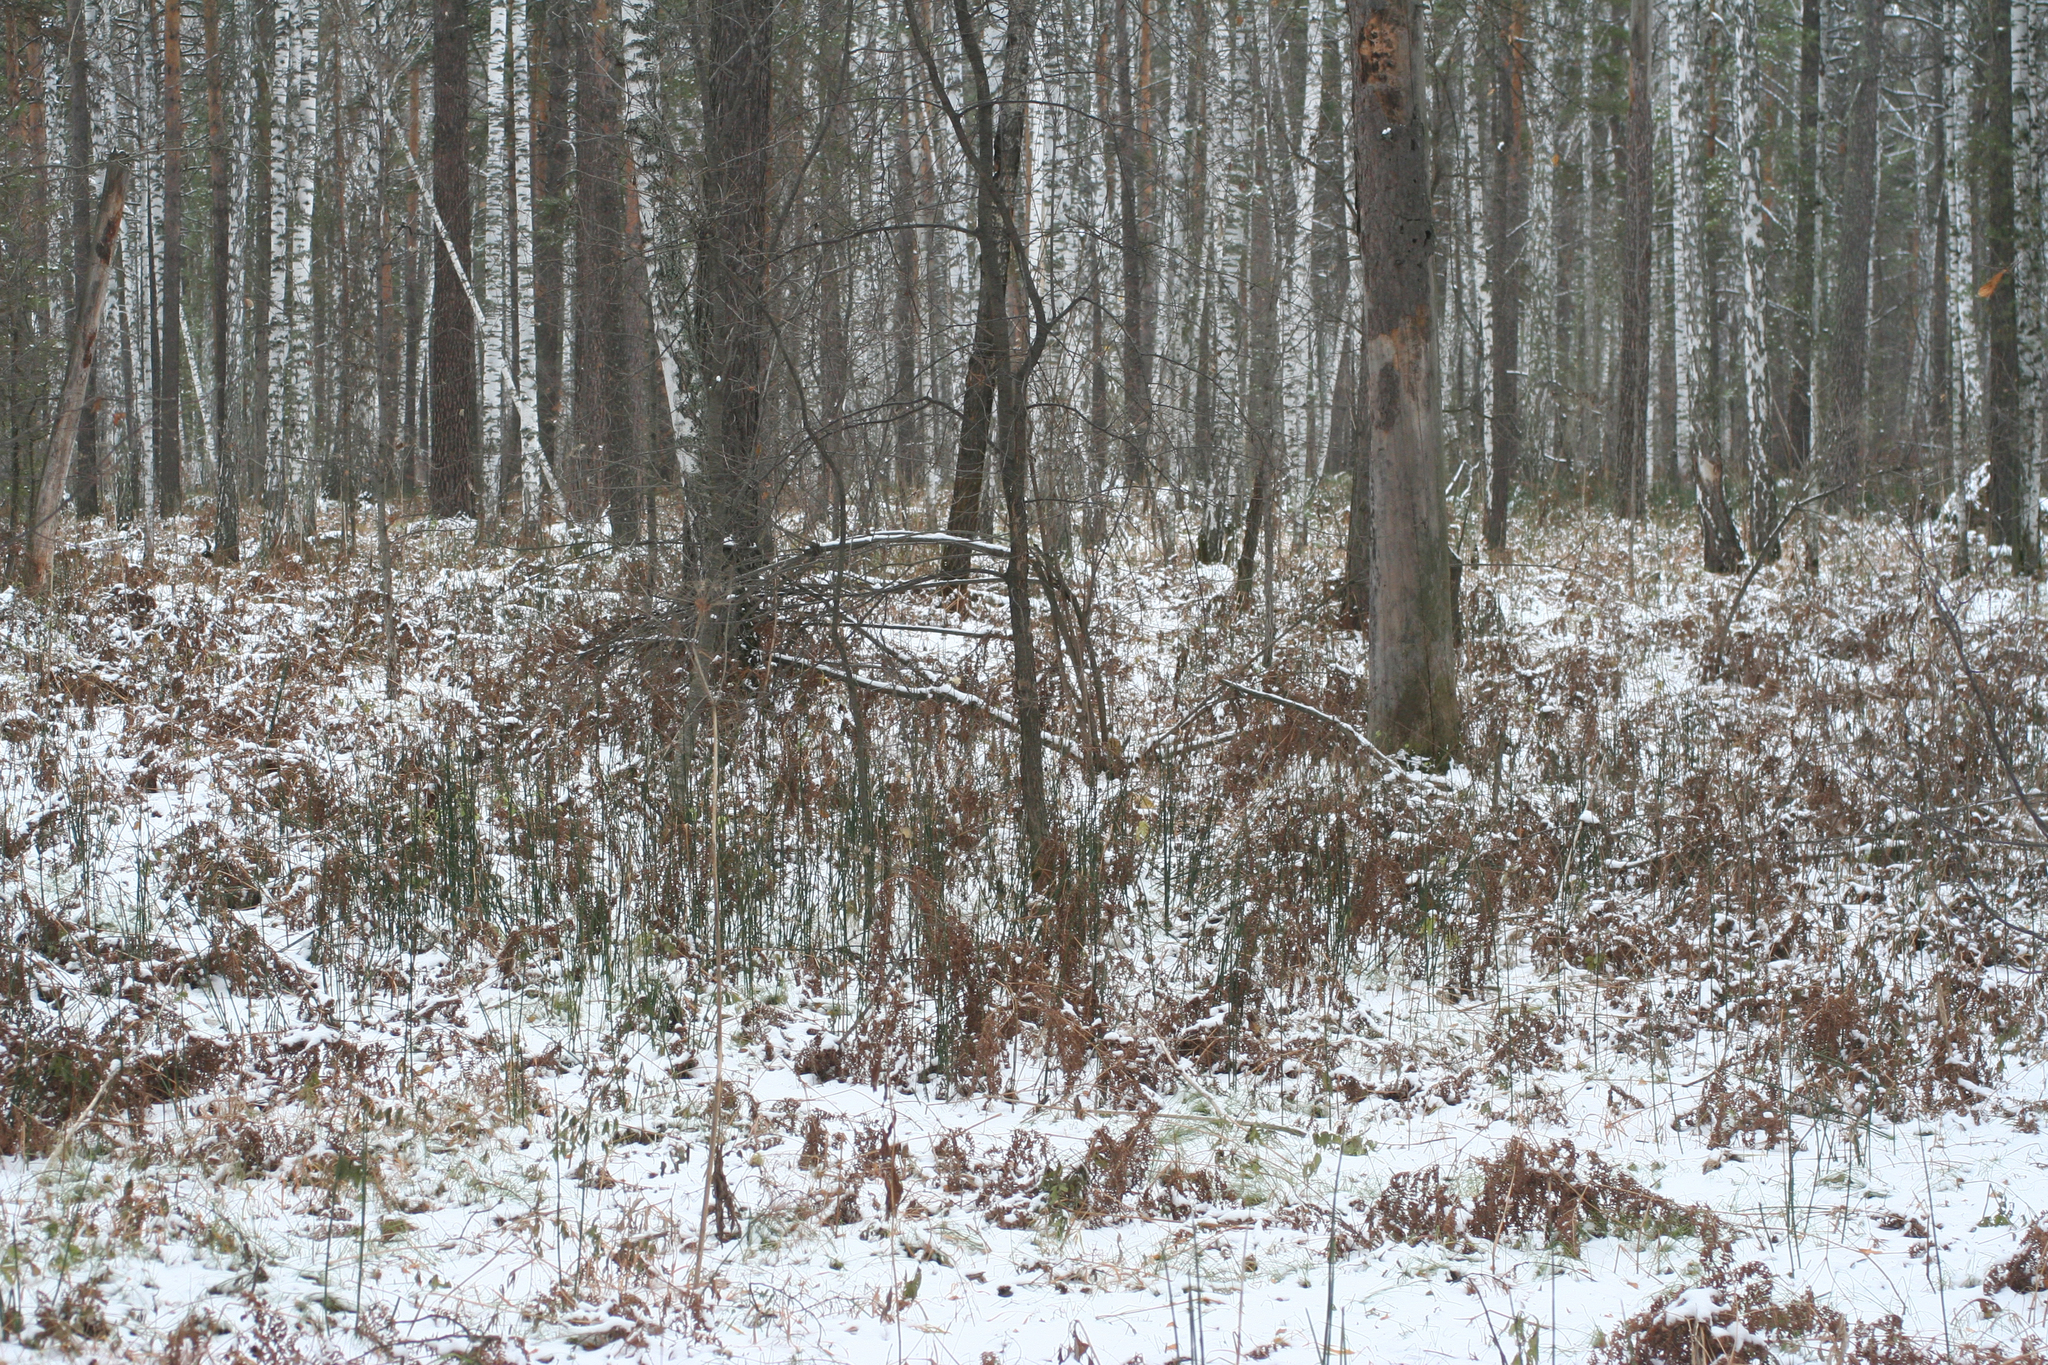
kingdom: Plantae
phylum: Tracheophyta
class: Polypodiopsida
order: Polypodiales
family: Dennstaedtiaceae
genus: Pteridium
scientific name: Pteridium aquilinum
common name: Bracken
